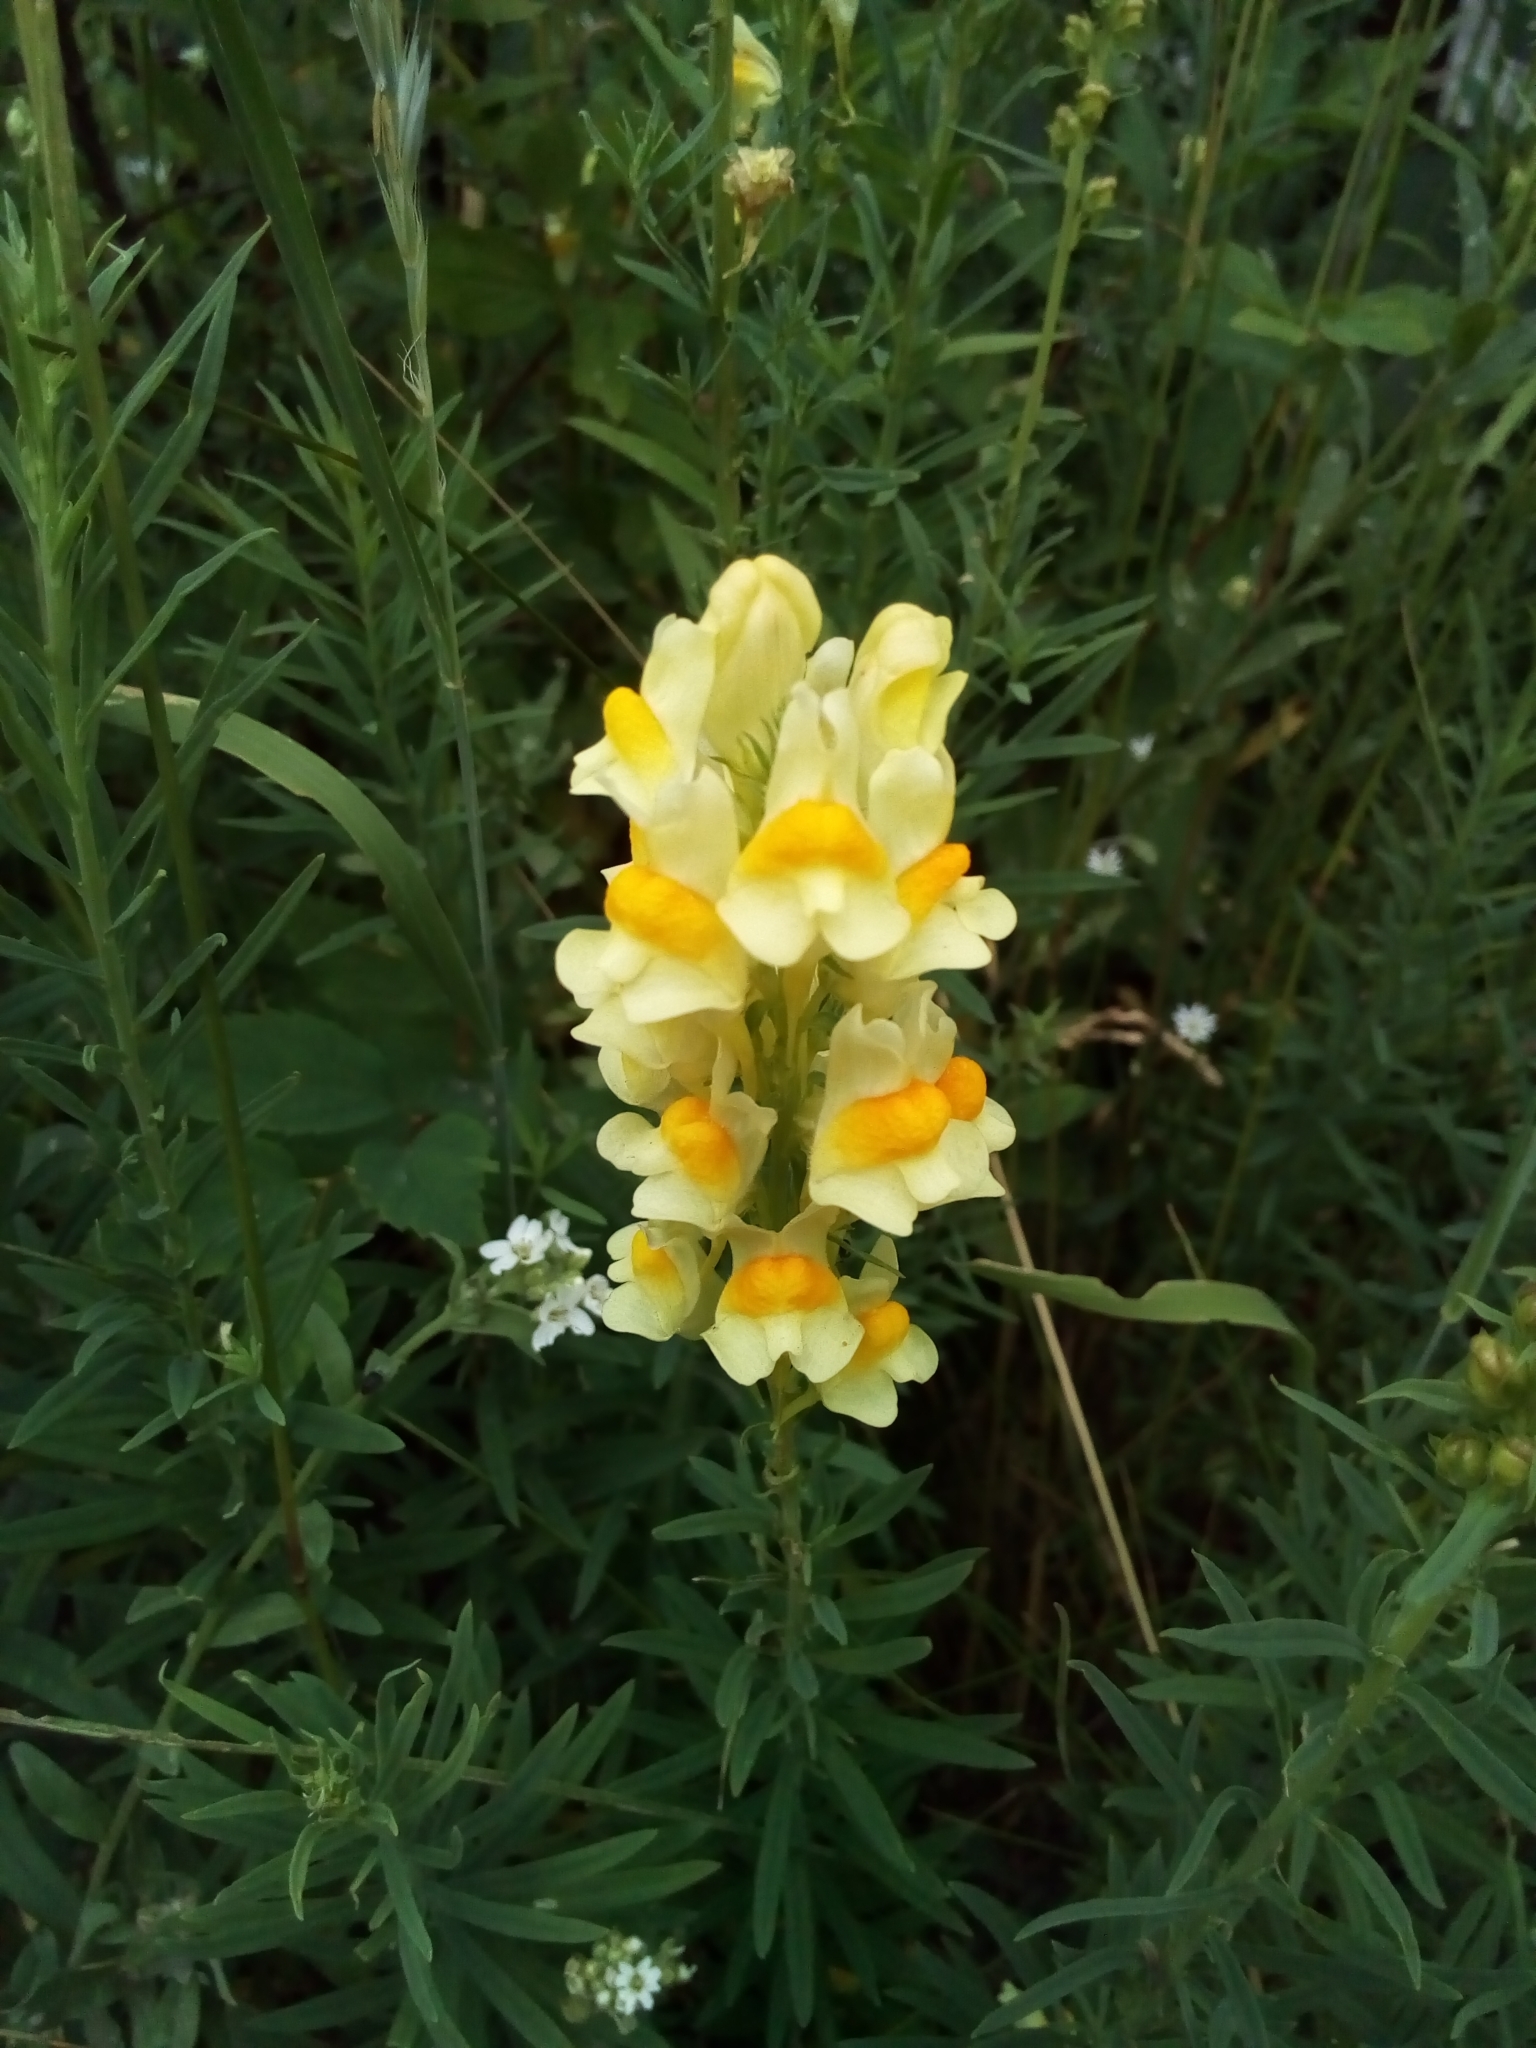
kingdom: Plantae
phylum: Tracheophyta
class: Magnoliopsida
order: Lamiales
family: Plantaginaceae
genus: Linaria
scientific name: Linaria vulgaris
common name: Butter and eggs
